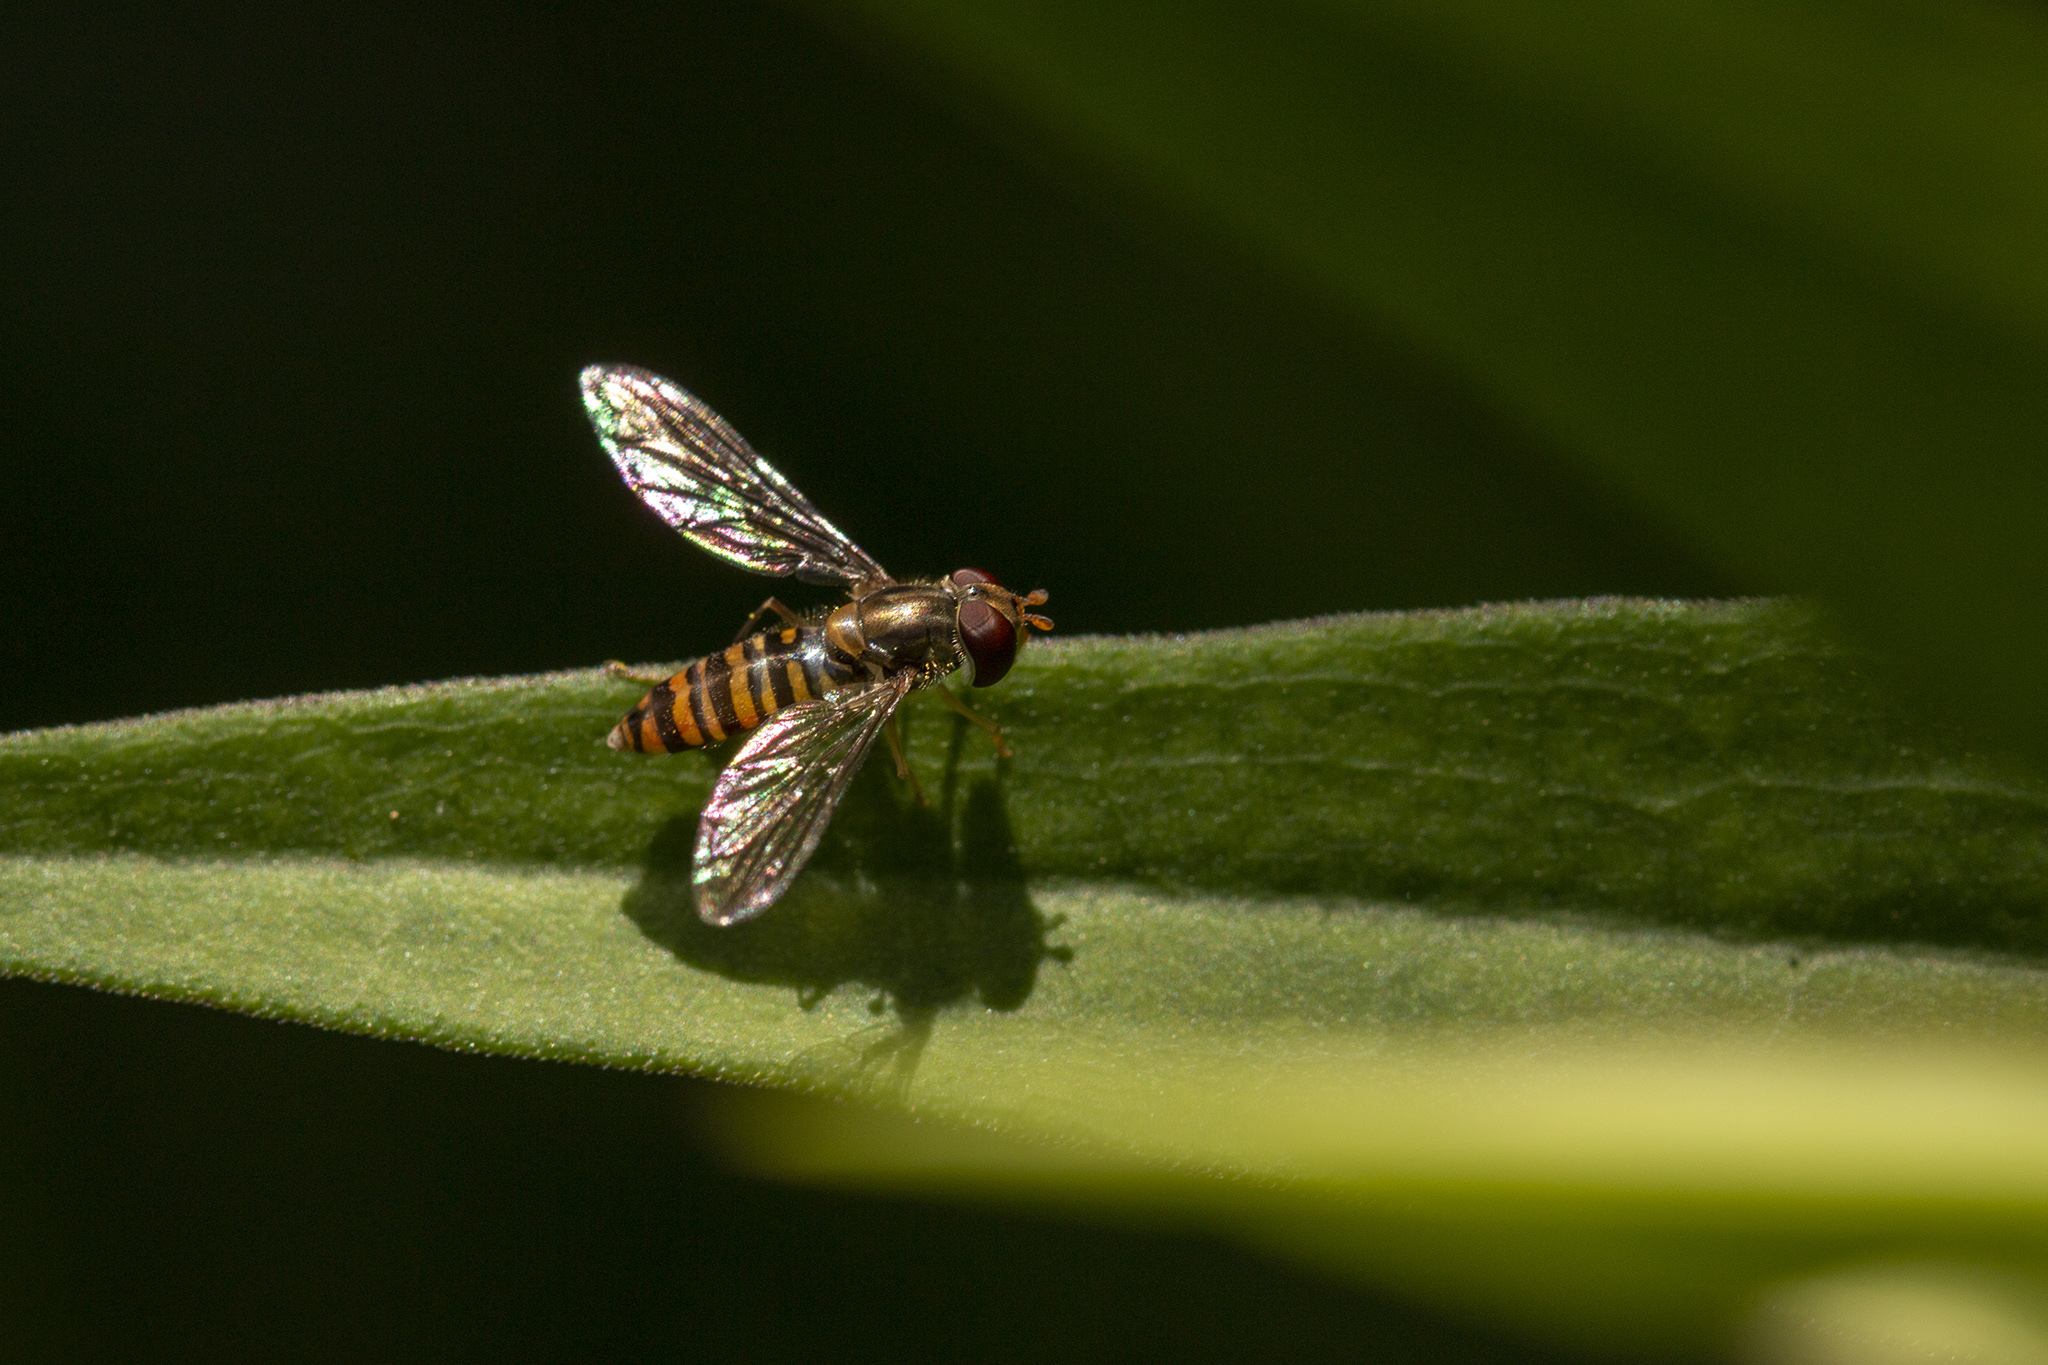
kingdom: Animalia
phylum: Arthropoda
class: Insecta
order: Diptera
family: Syrphidae
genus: Episyrphus
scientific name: Episyrphus balteatus
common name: Marmalade hoverfly
